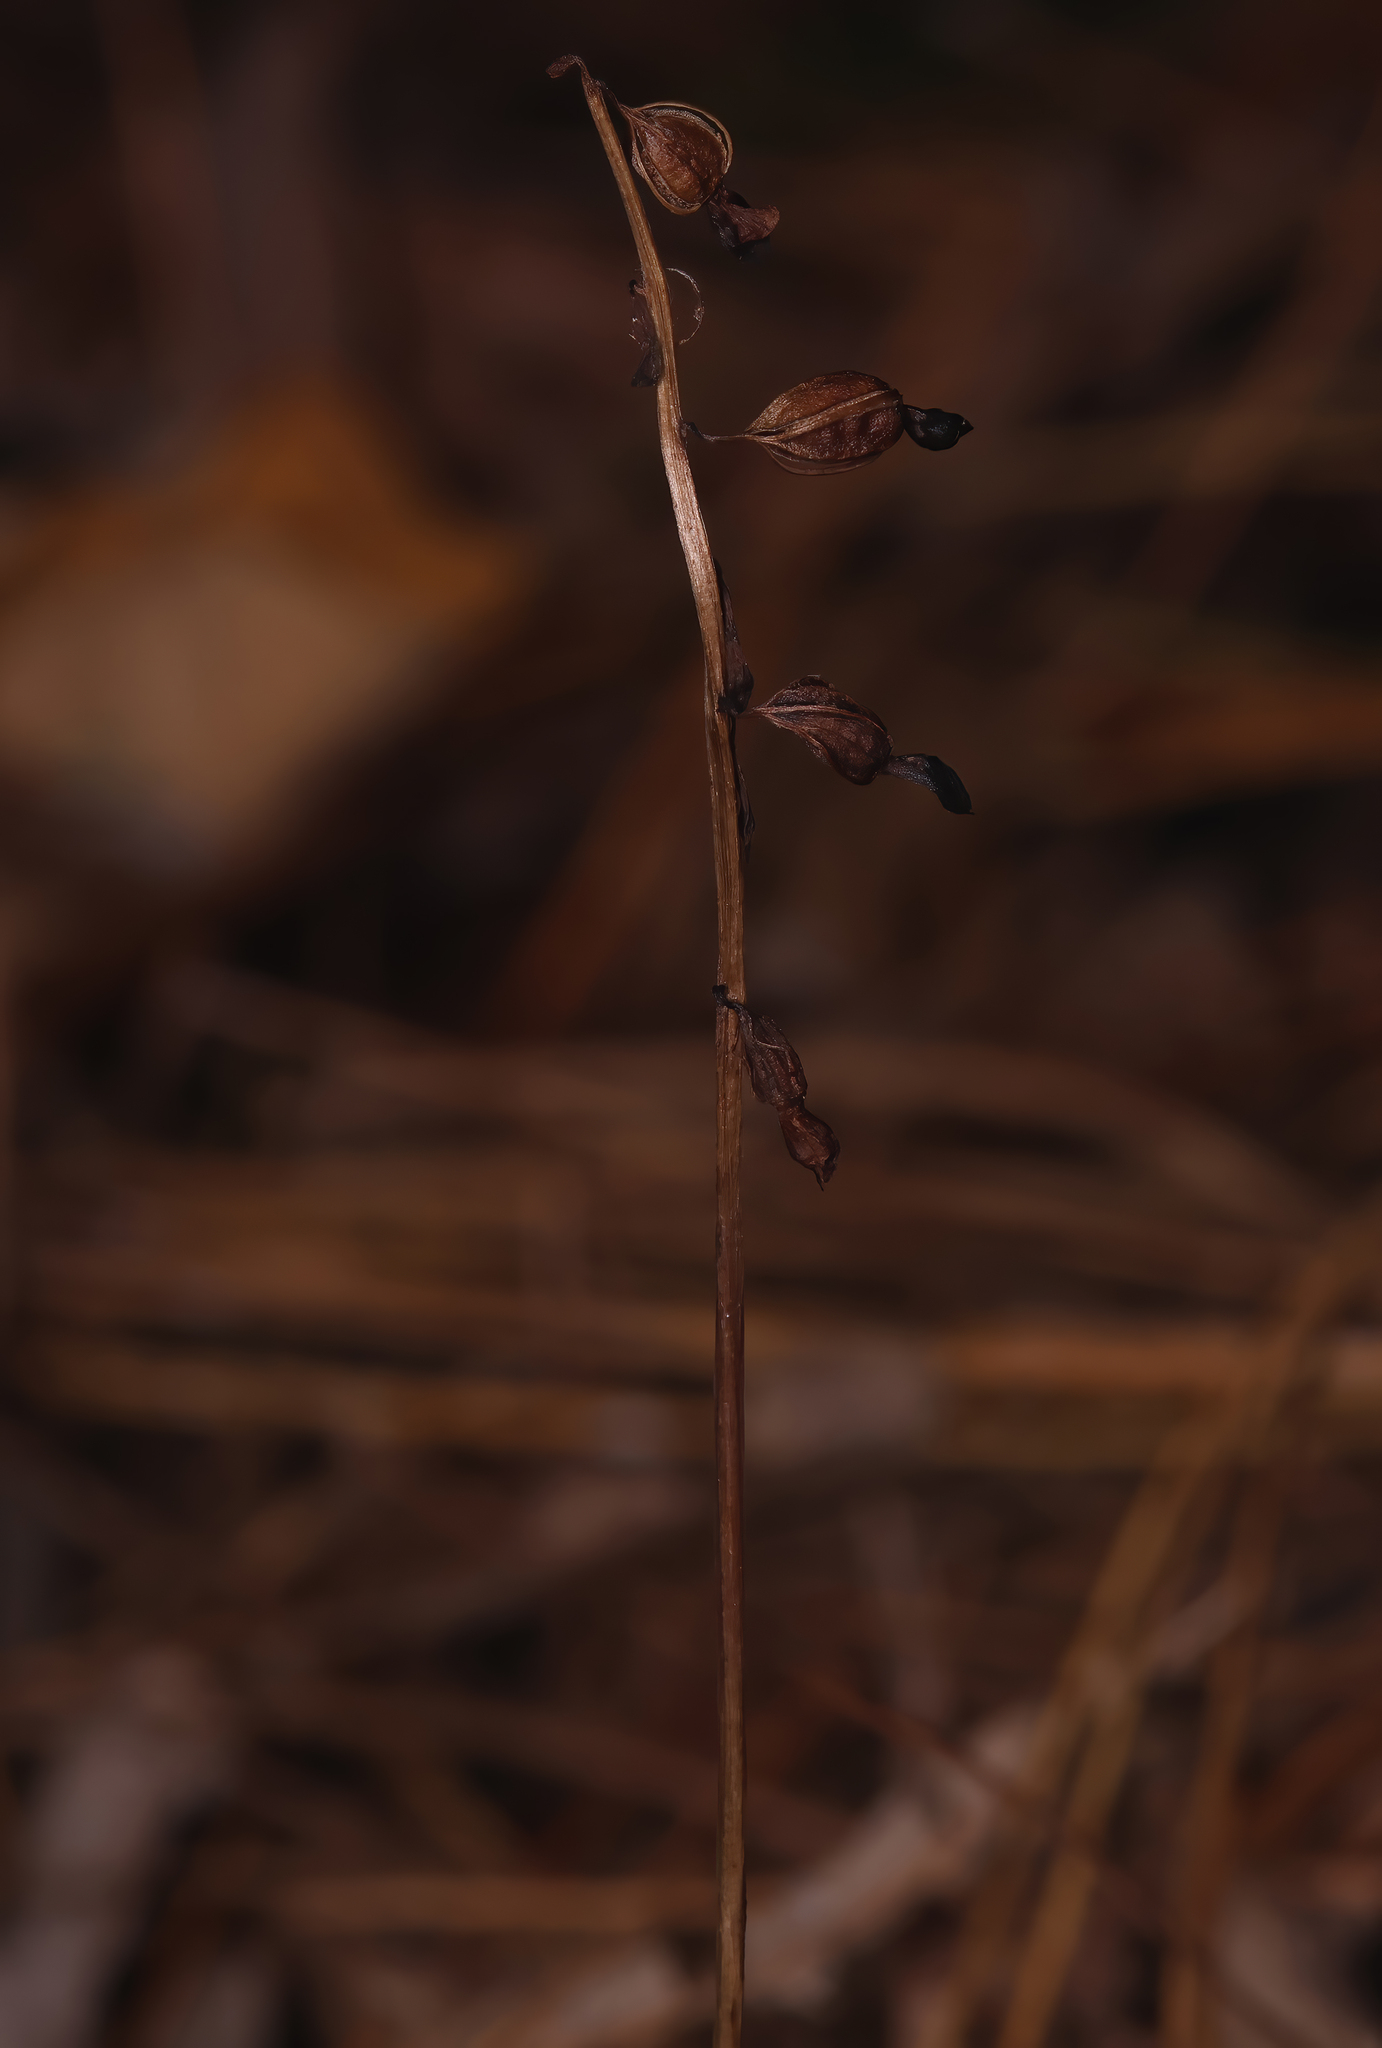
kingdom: Plantae
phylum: Tracheophyta
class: Liliopsida
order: Asparagales
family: Orchidaceae
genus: Corallorhiza
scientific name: Corallorhiza odontorhiza
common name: Autumn coralroot
